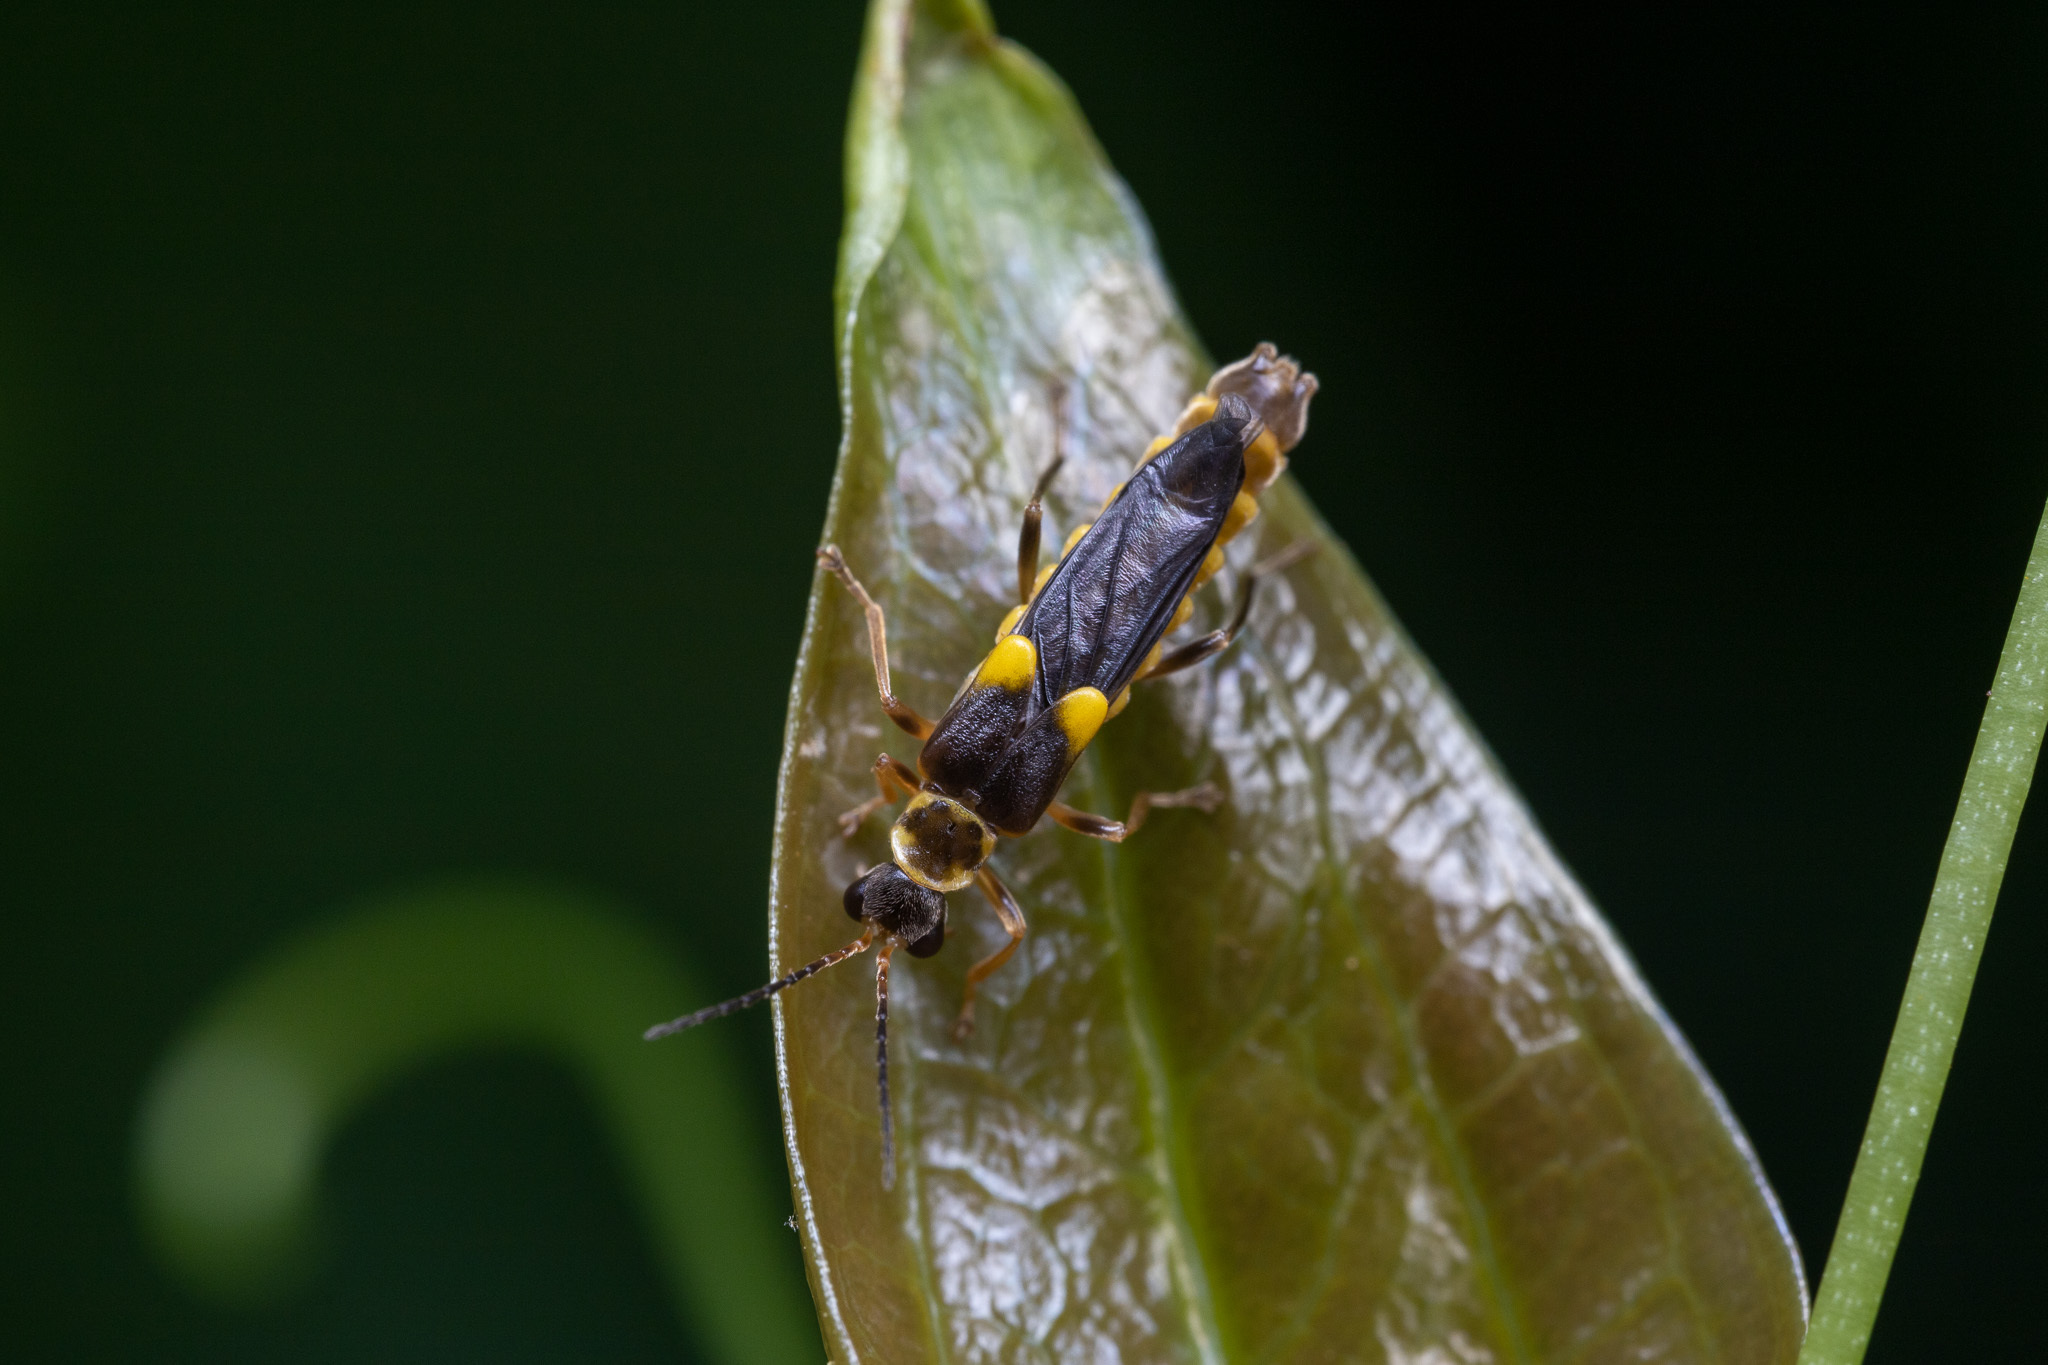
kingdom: Animalia
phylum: Arthropoda
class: Insecta
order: Coleoptera
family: Cantharidae
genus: Trypherus
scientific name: Trypherus frisoni
